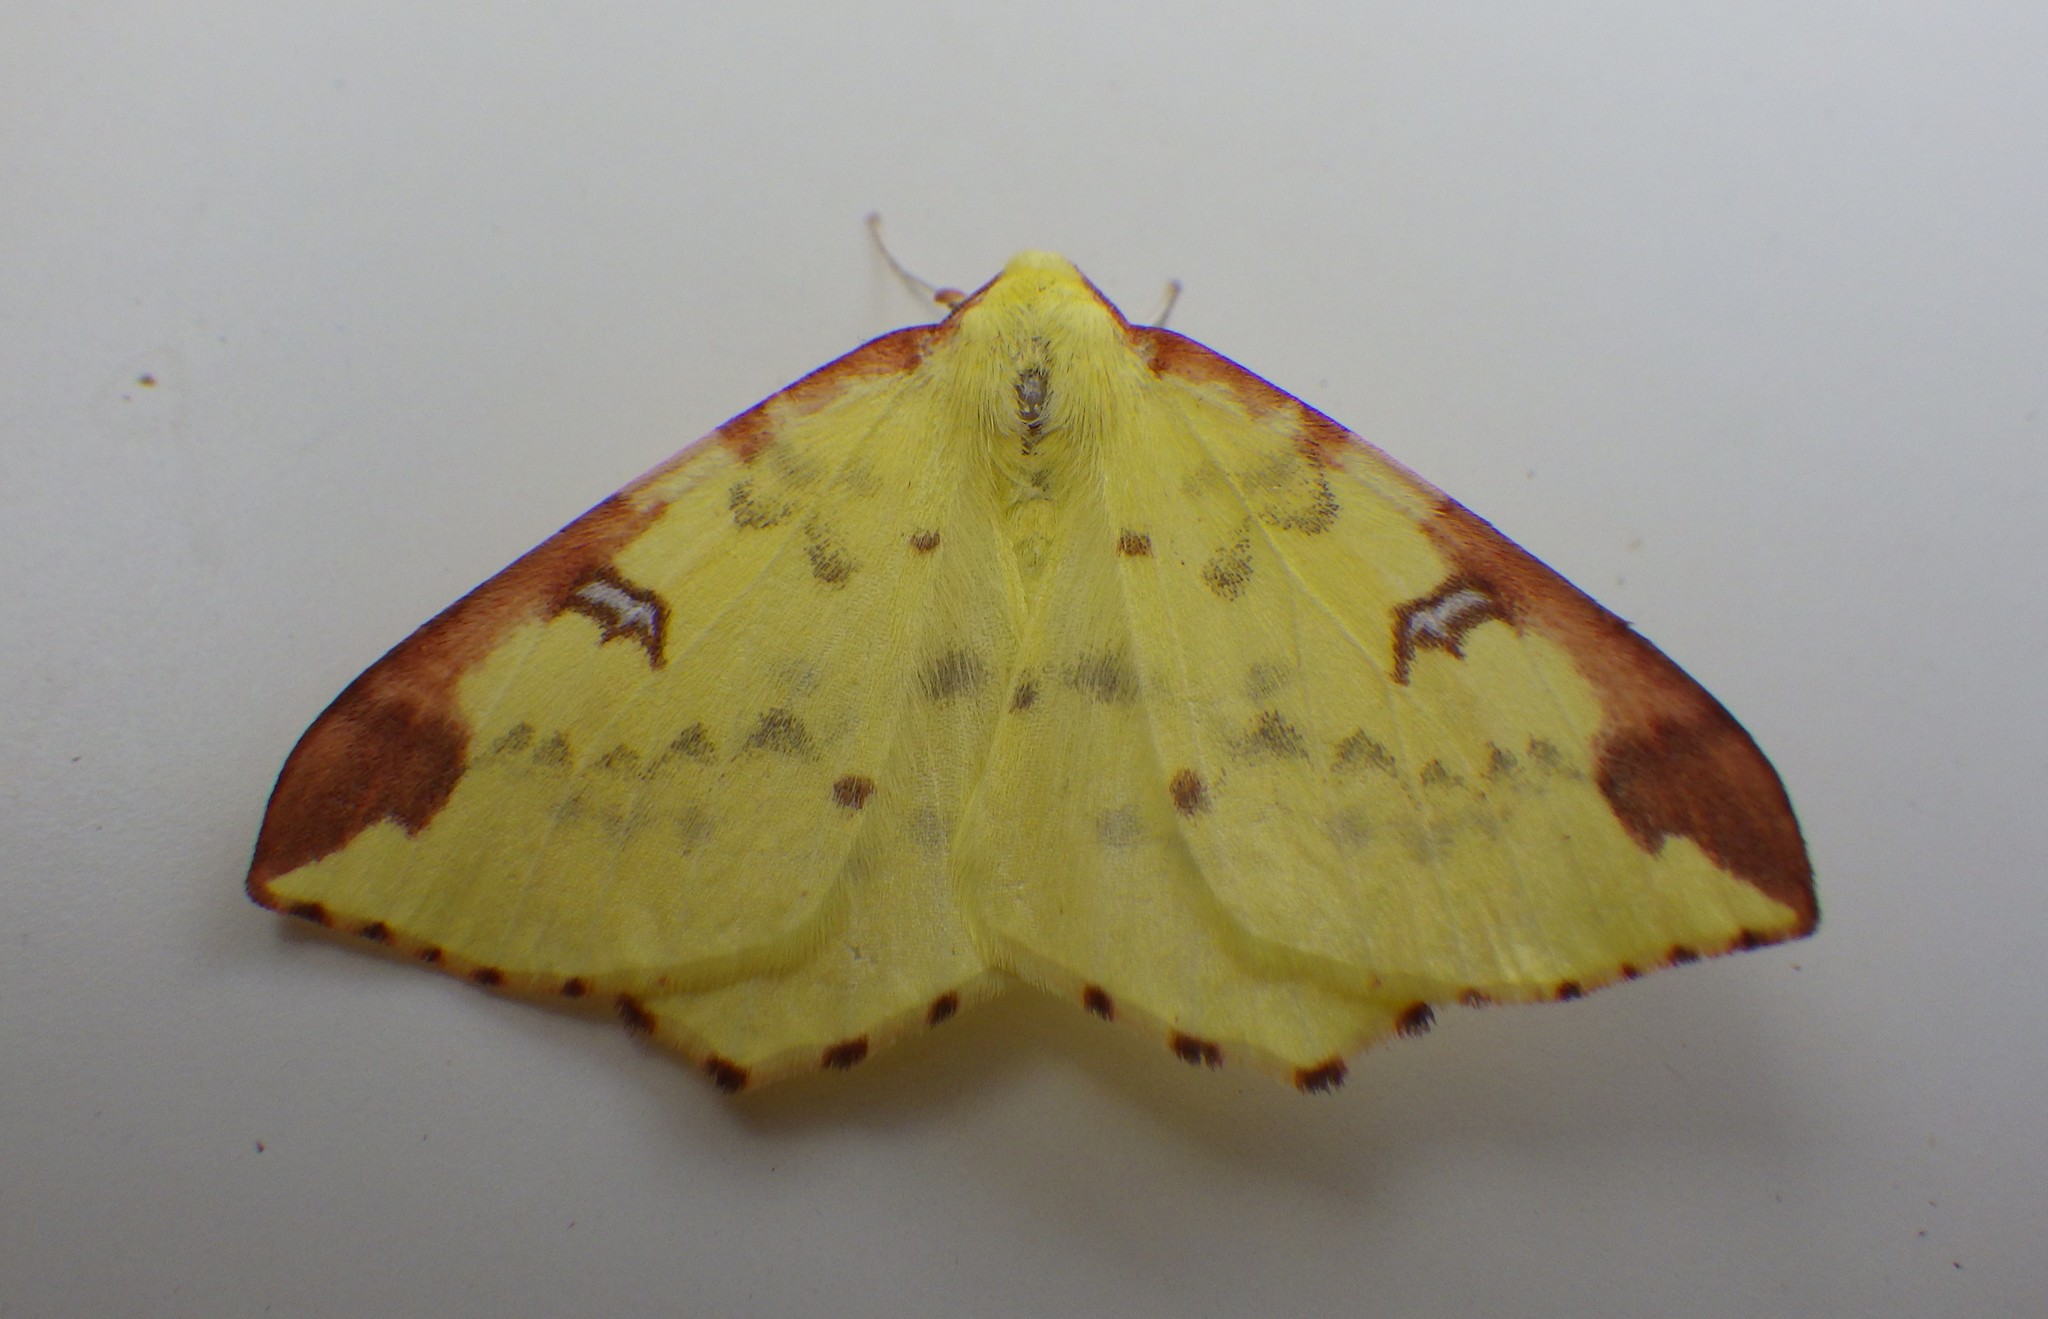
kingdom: Animalia
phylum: Arthropoda
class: Insecta
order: Lepidoptera
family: Geometridae
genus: Opisthograptis
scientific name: Opisthograptis luteolata
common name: Brimstone moth
